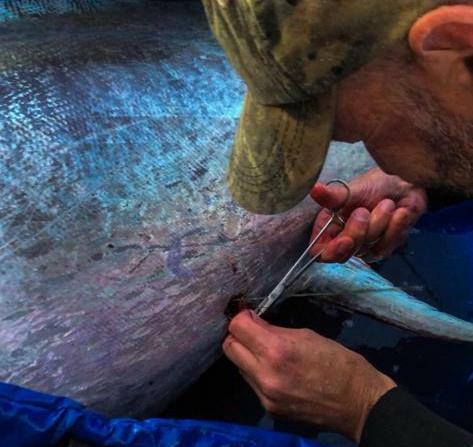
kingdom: Animalia
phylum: Chordata
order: Perciformes
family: Scombridae
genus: Thunnus
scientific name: Thunnus orientalis
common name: Pacific bluefin tuna
